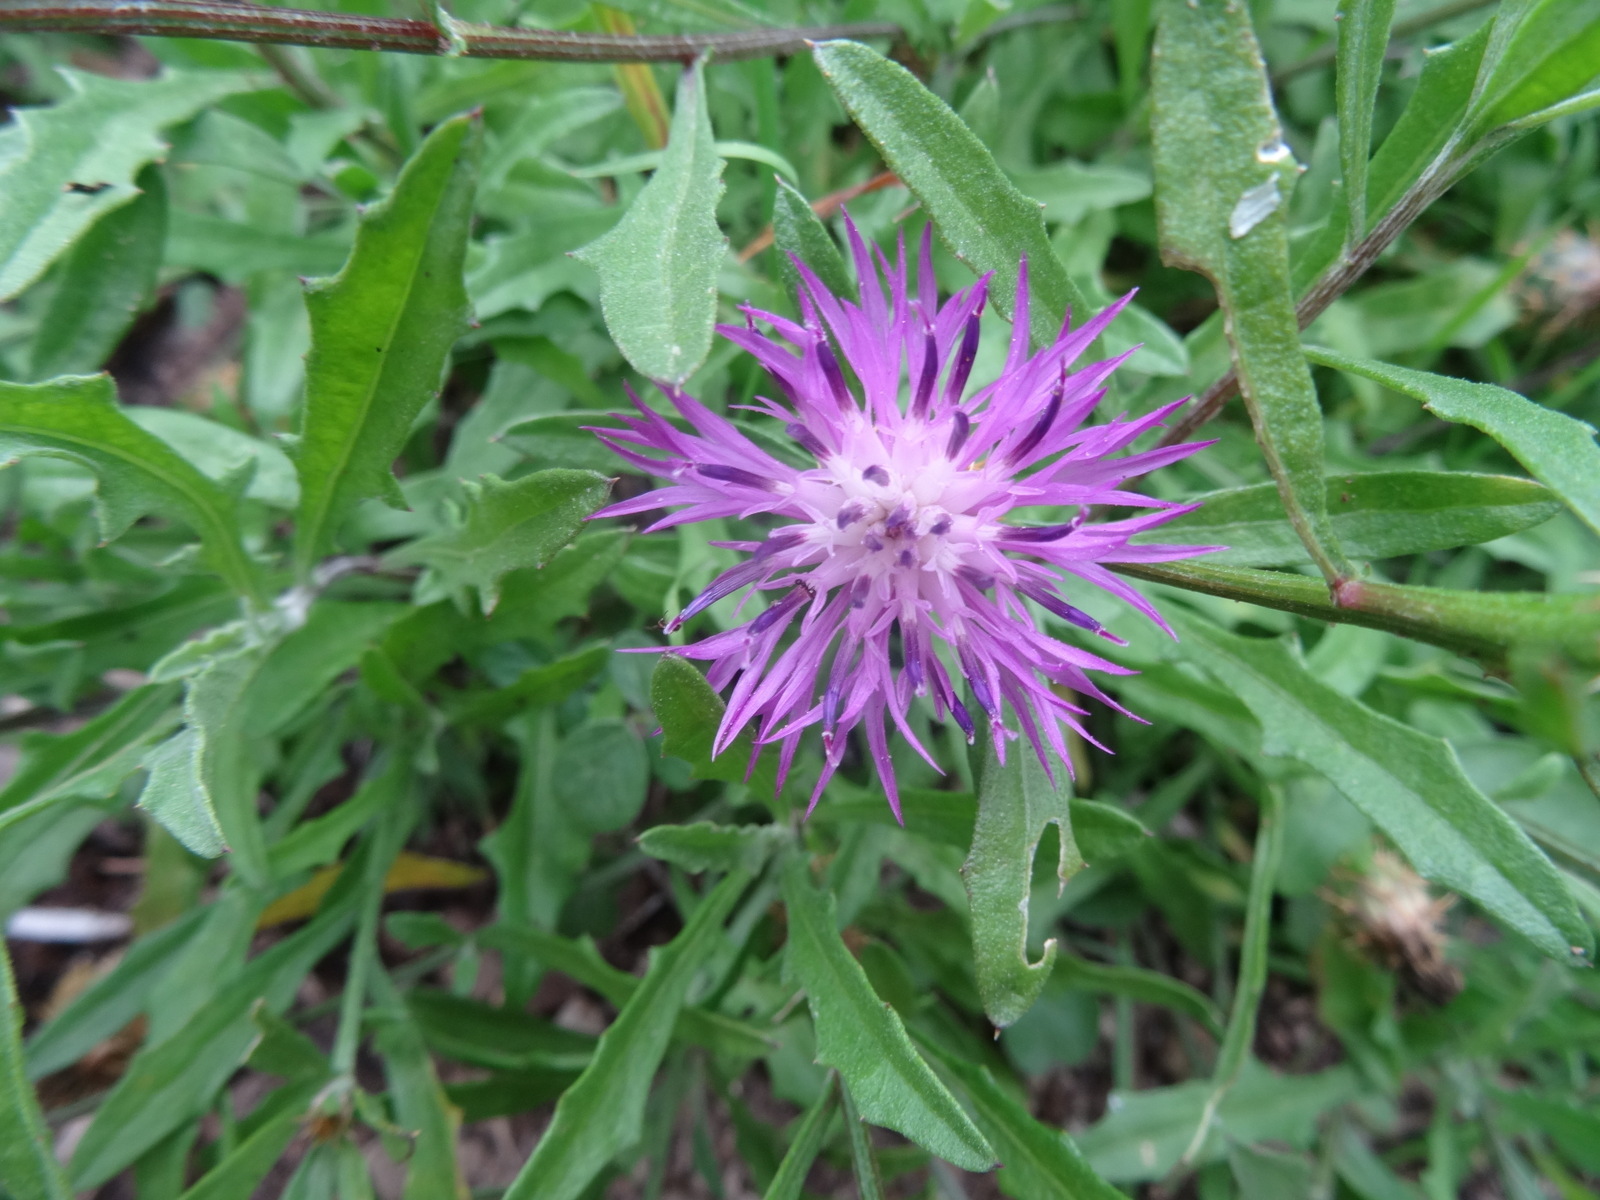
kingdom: Plantae
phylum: Tracheophyta
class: Magnoliopsida
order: Asterales
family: Asteraceae
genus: Centaurea
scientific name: Centaurea aspera
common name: Rough star-thistle
